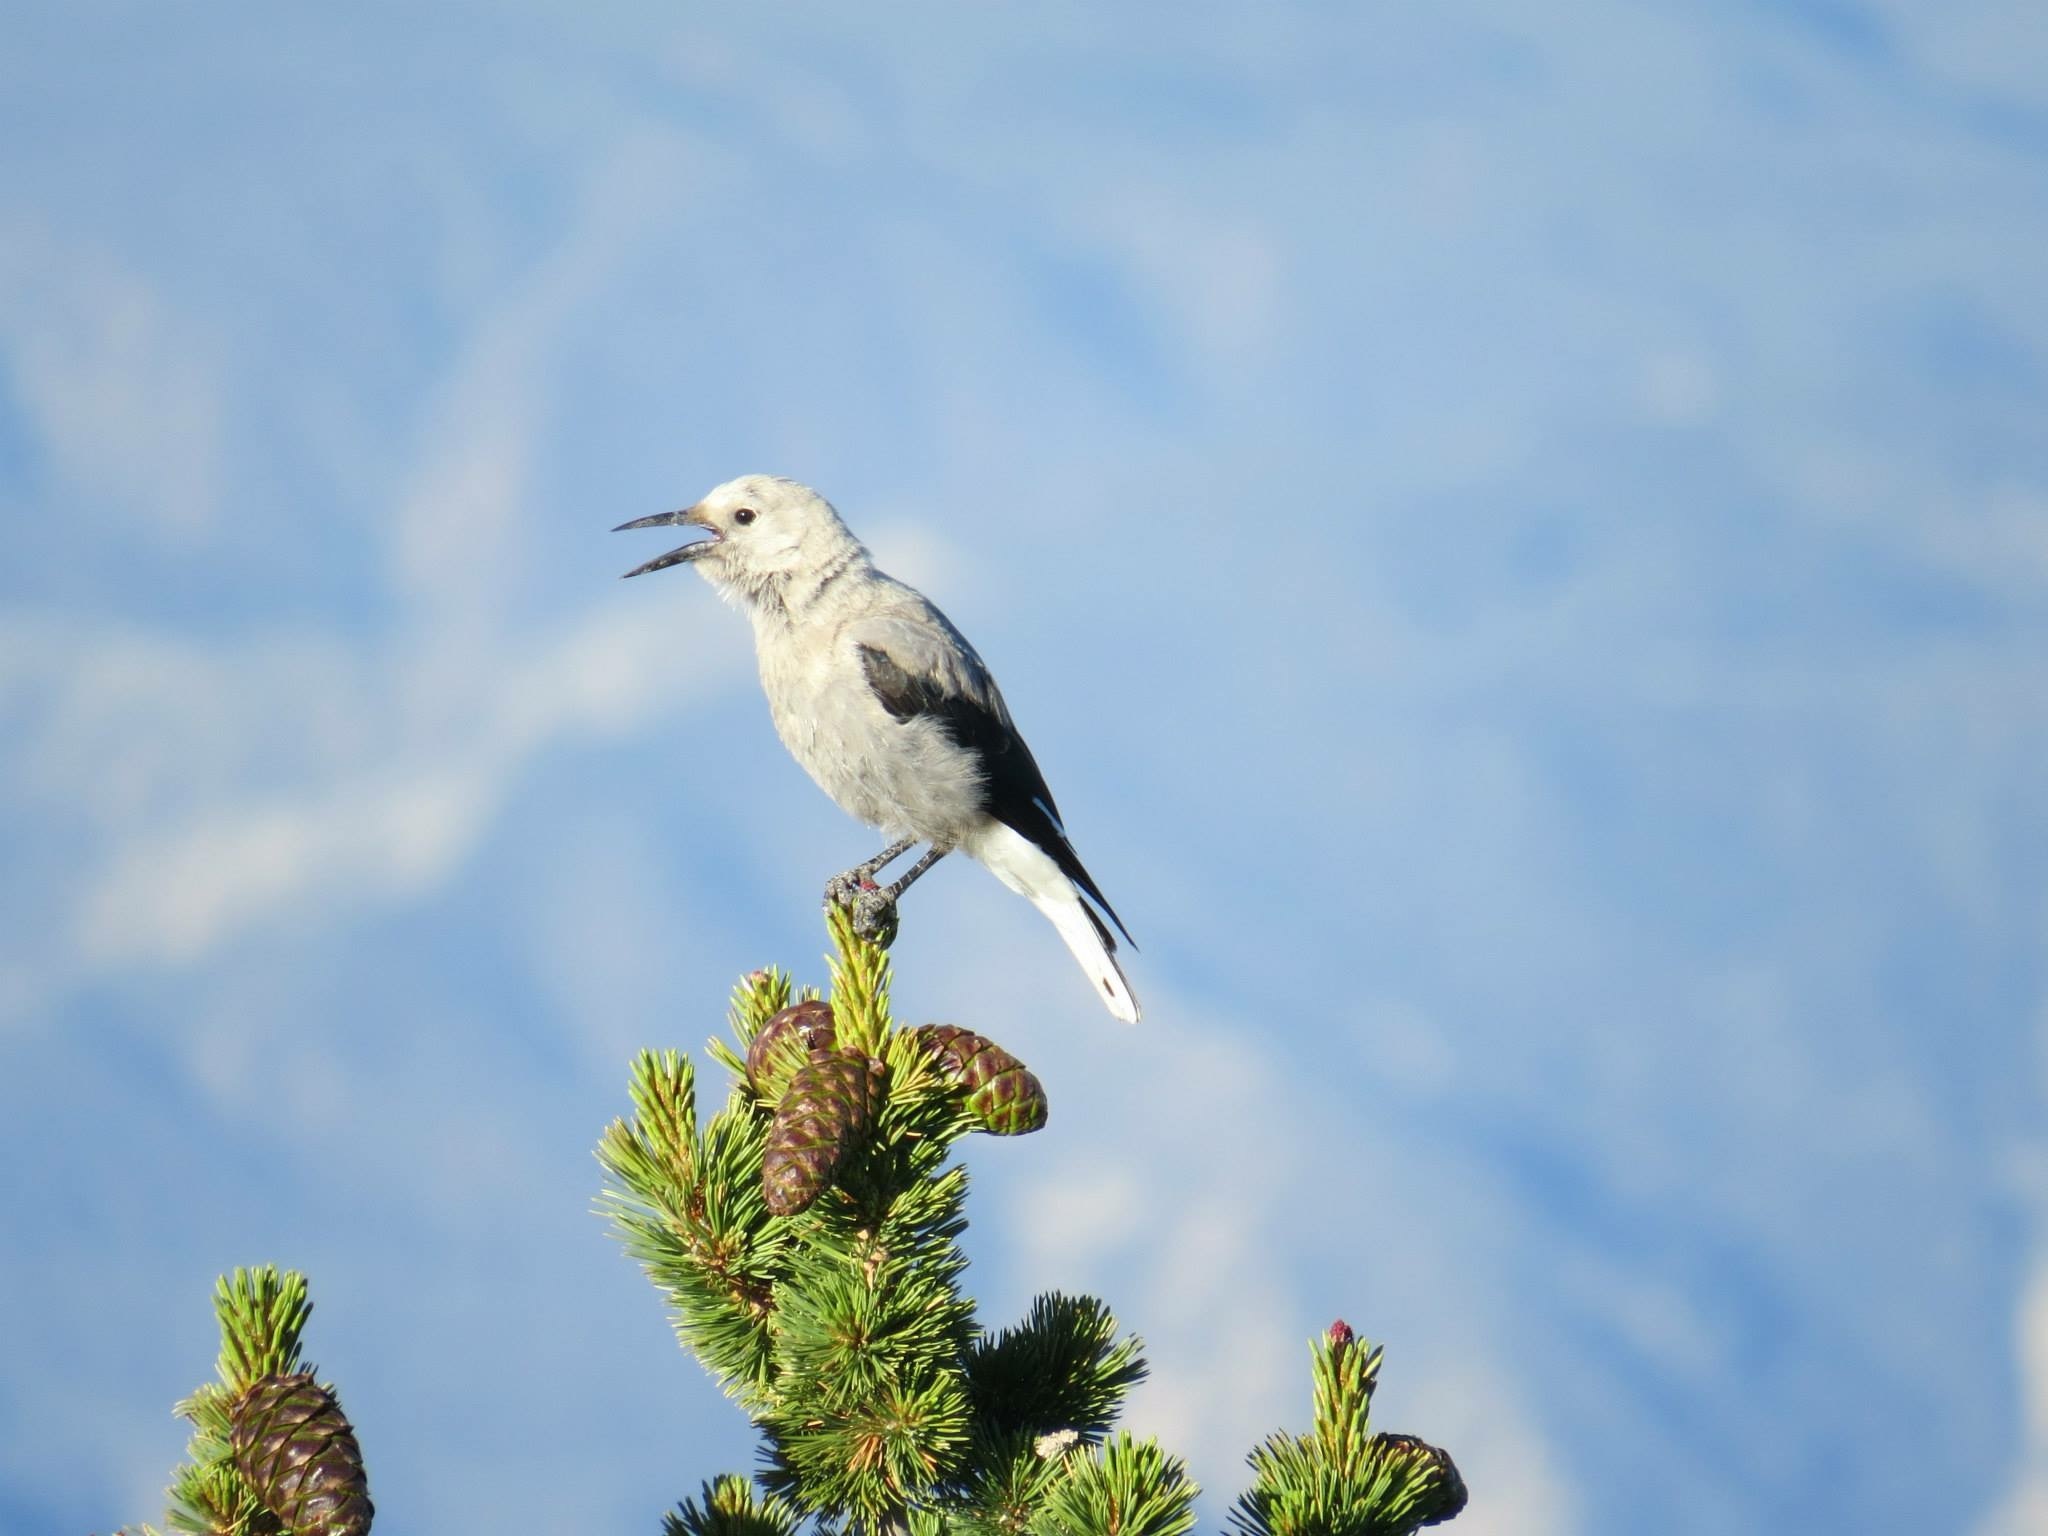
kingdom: Animalia
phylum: Chordata
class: Aves
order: Passeriformes
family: Corvidae
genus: Nucifraga
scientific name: Nucifraga columbiana
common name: Clark's nutcracker
